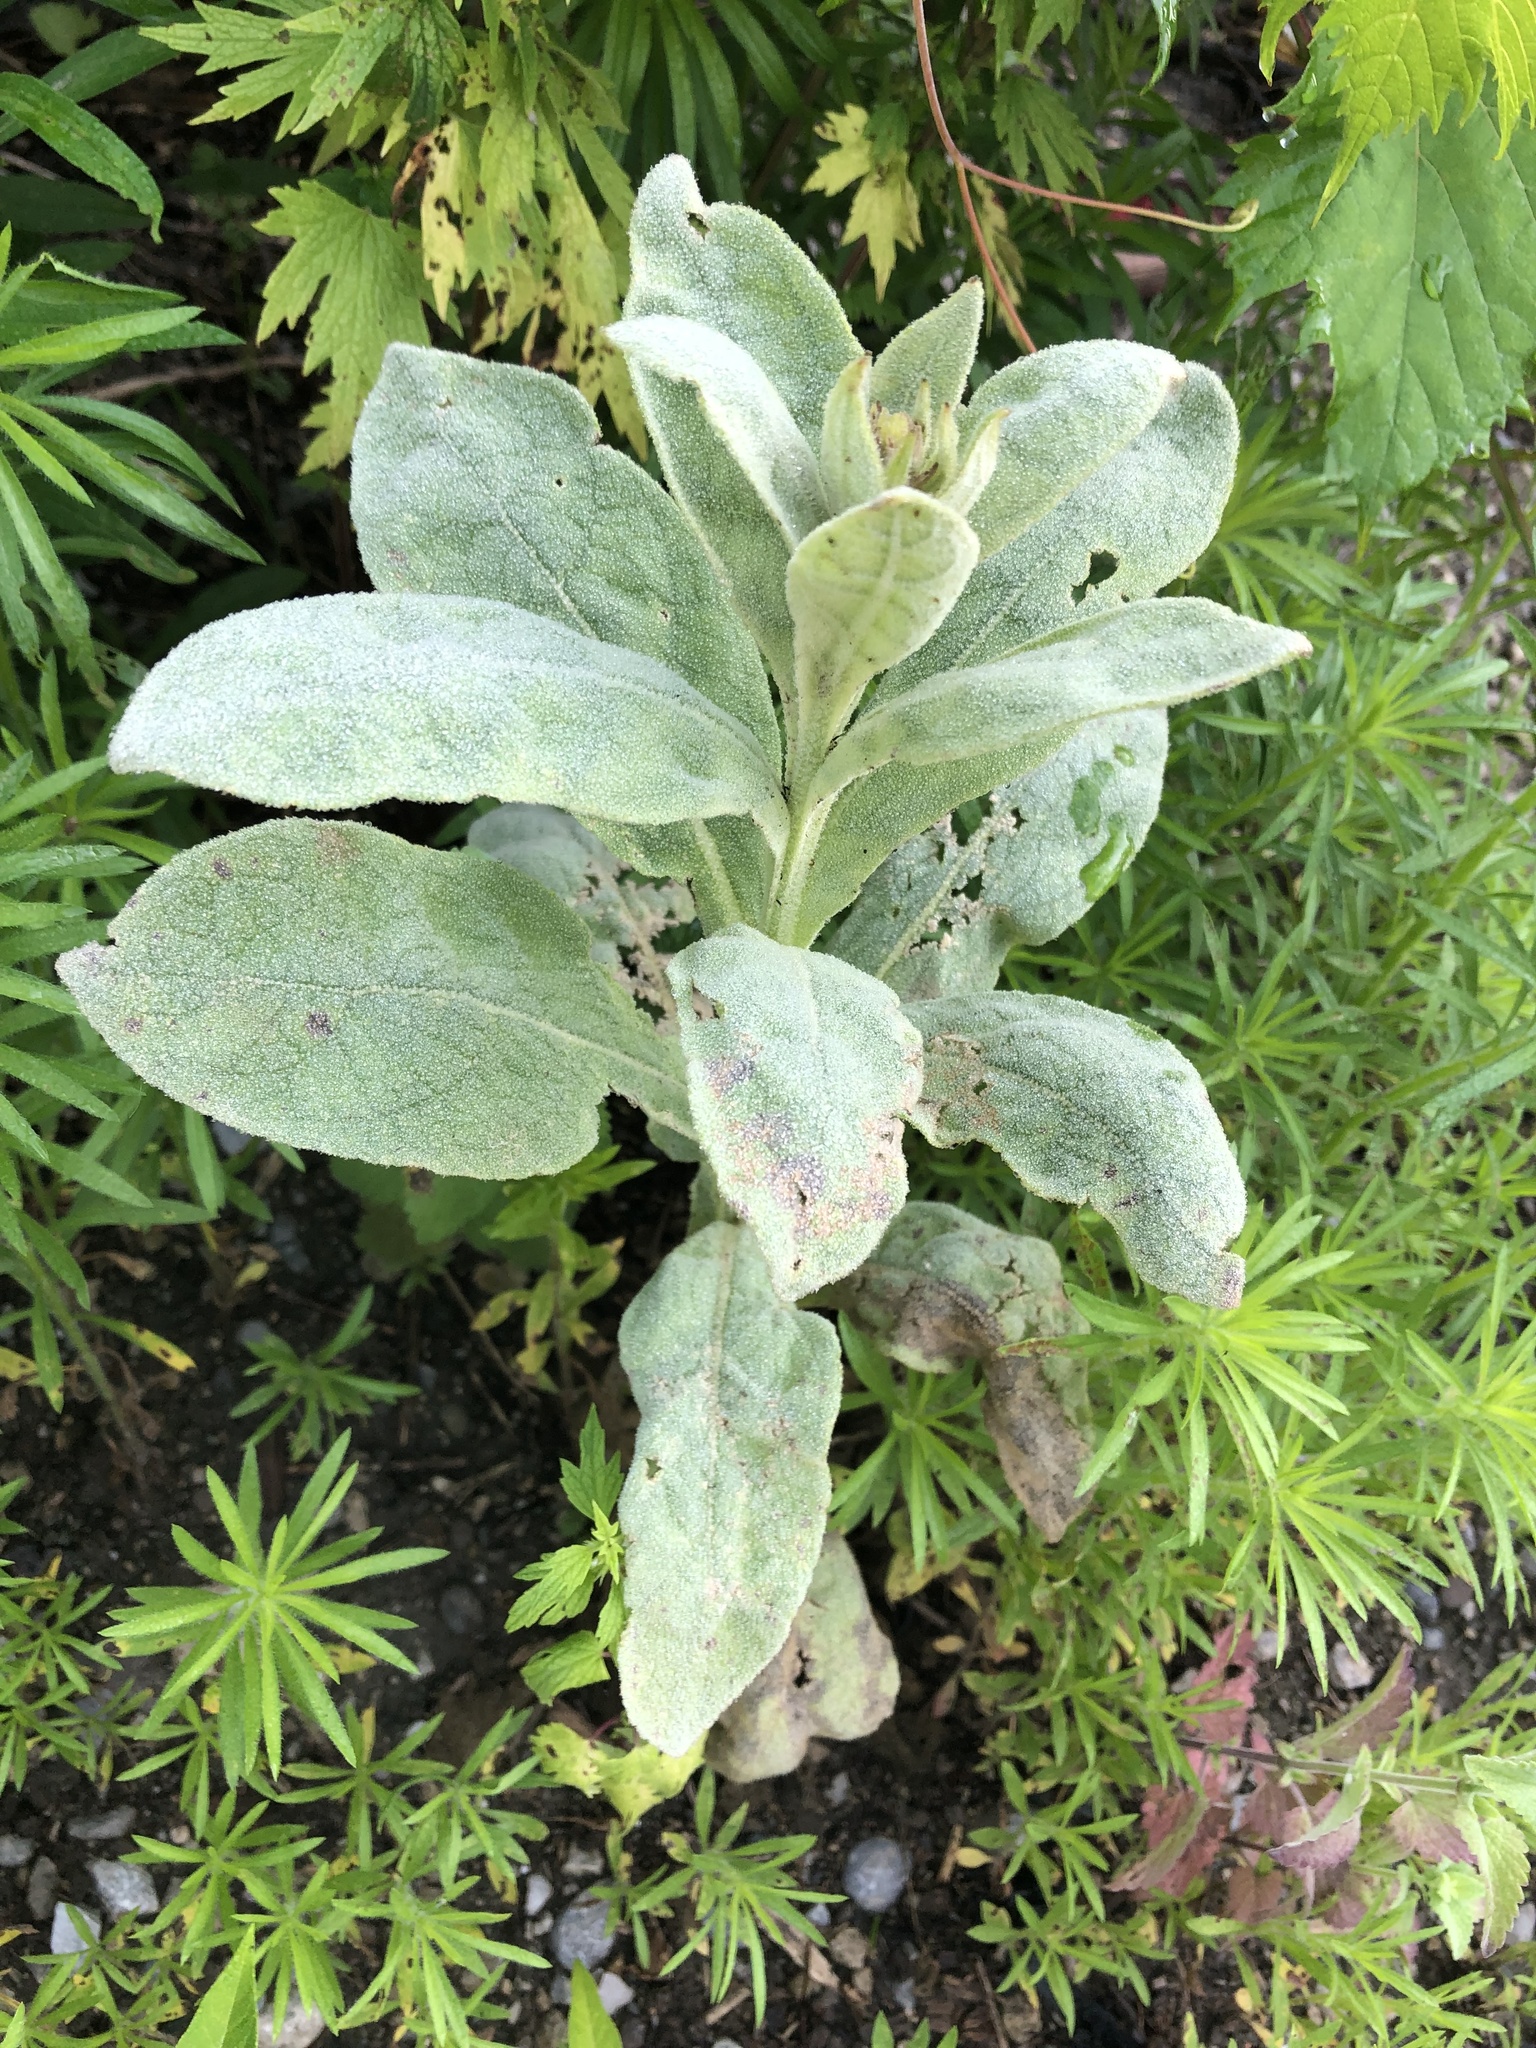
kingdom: Plantae
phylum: Tracheophyta
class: Magnoliopsida
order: Lamiales
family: Scrophulariaceae
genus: Verbascum
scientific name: Verbascum thapsus
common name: Common mullein
